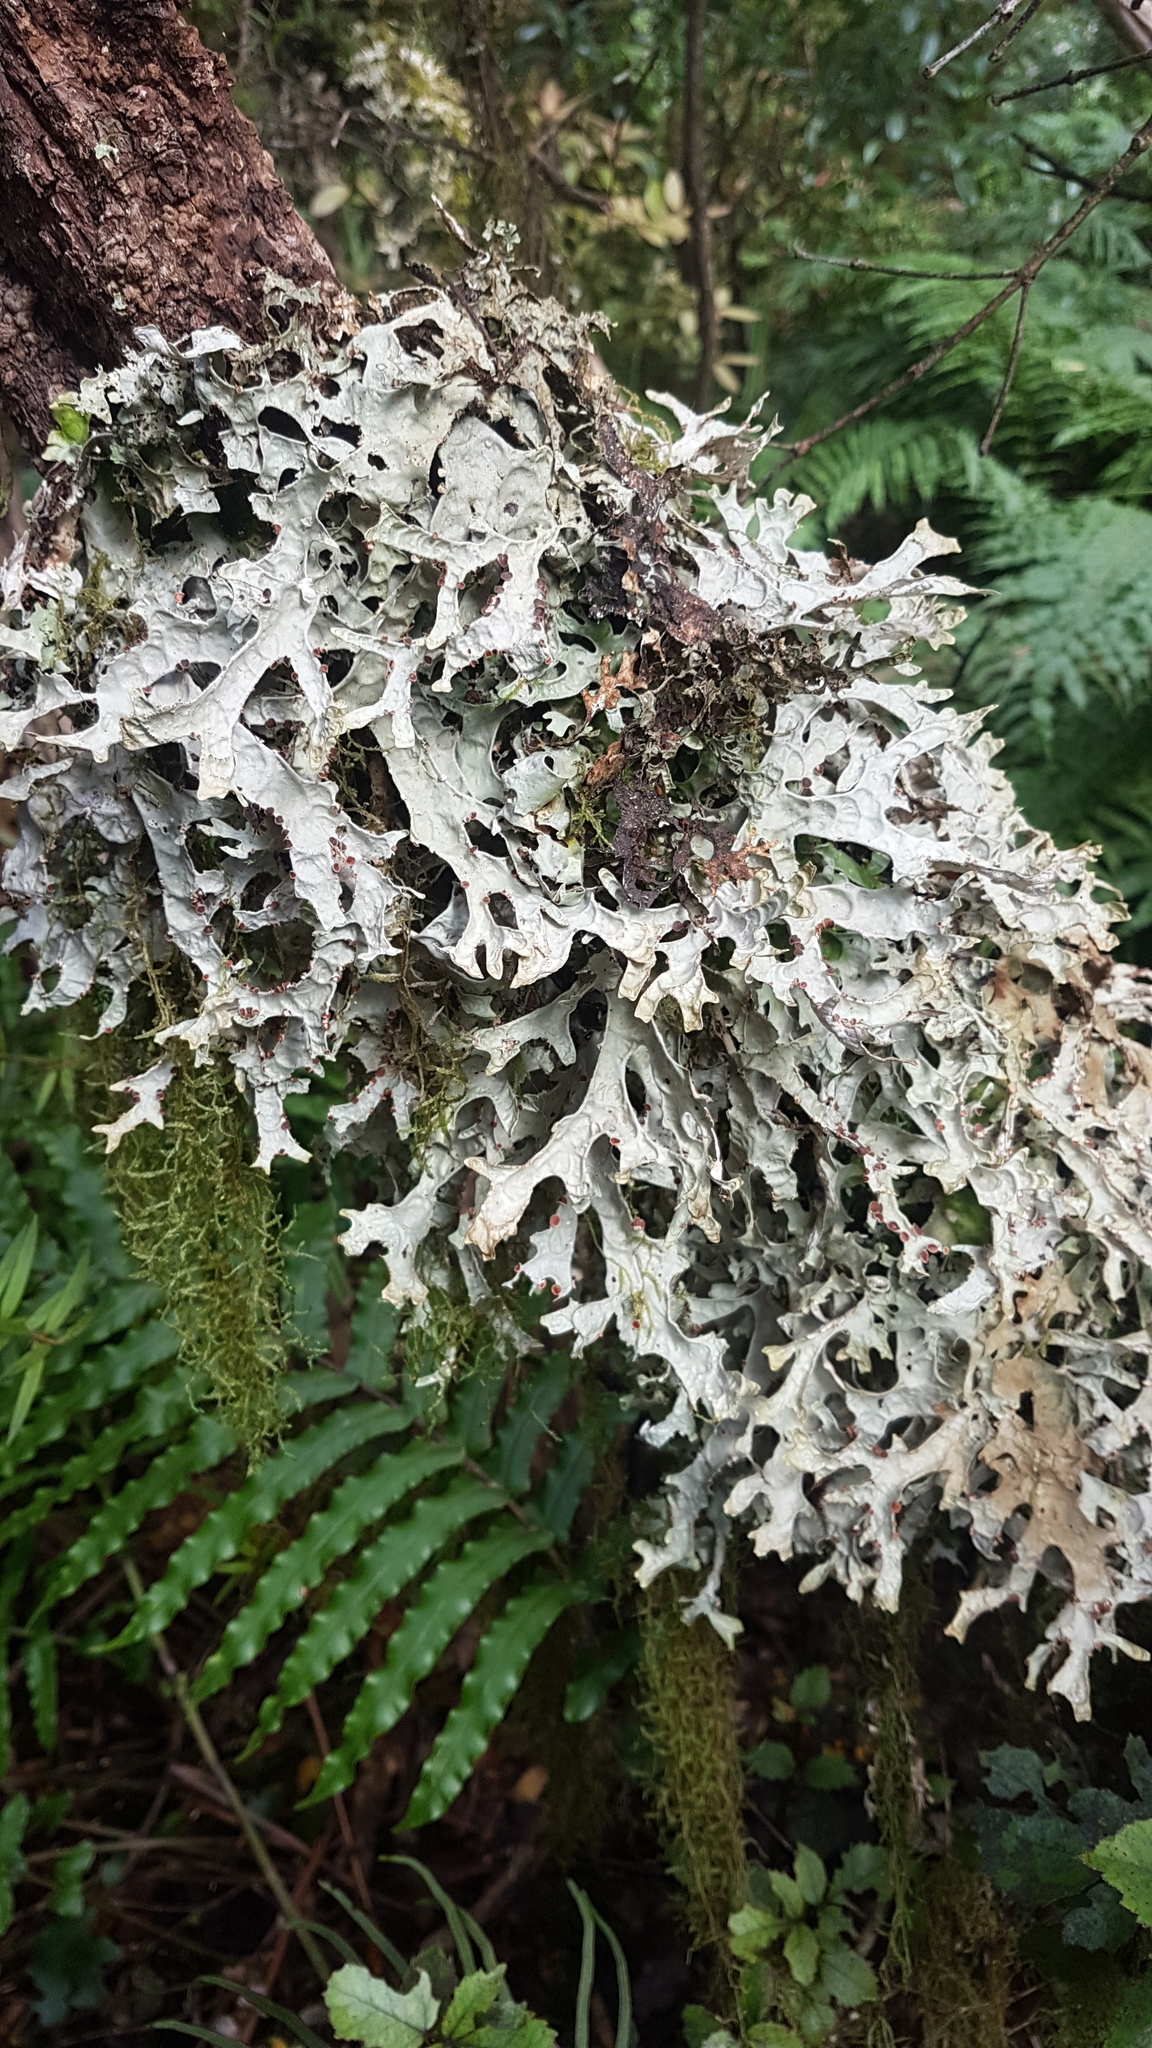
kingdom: Fungi
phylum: Ascomycota
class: Lecanoromycetes
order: Peltigerales
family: Lobariaceae
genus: Pseudocyphellaria
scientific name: Pseudocyphellaria faveolata
